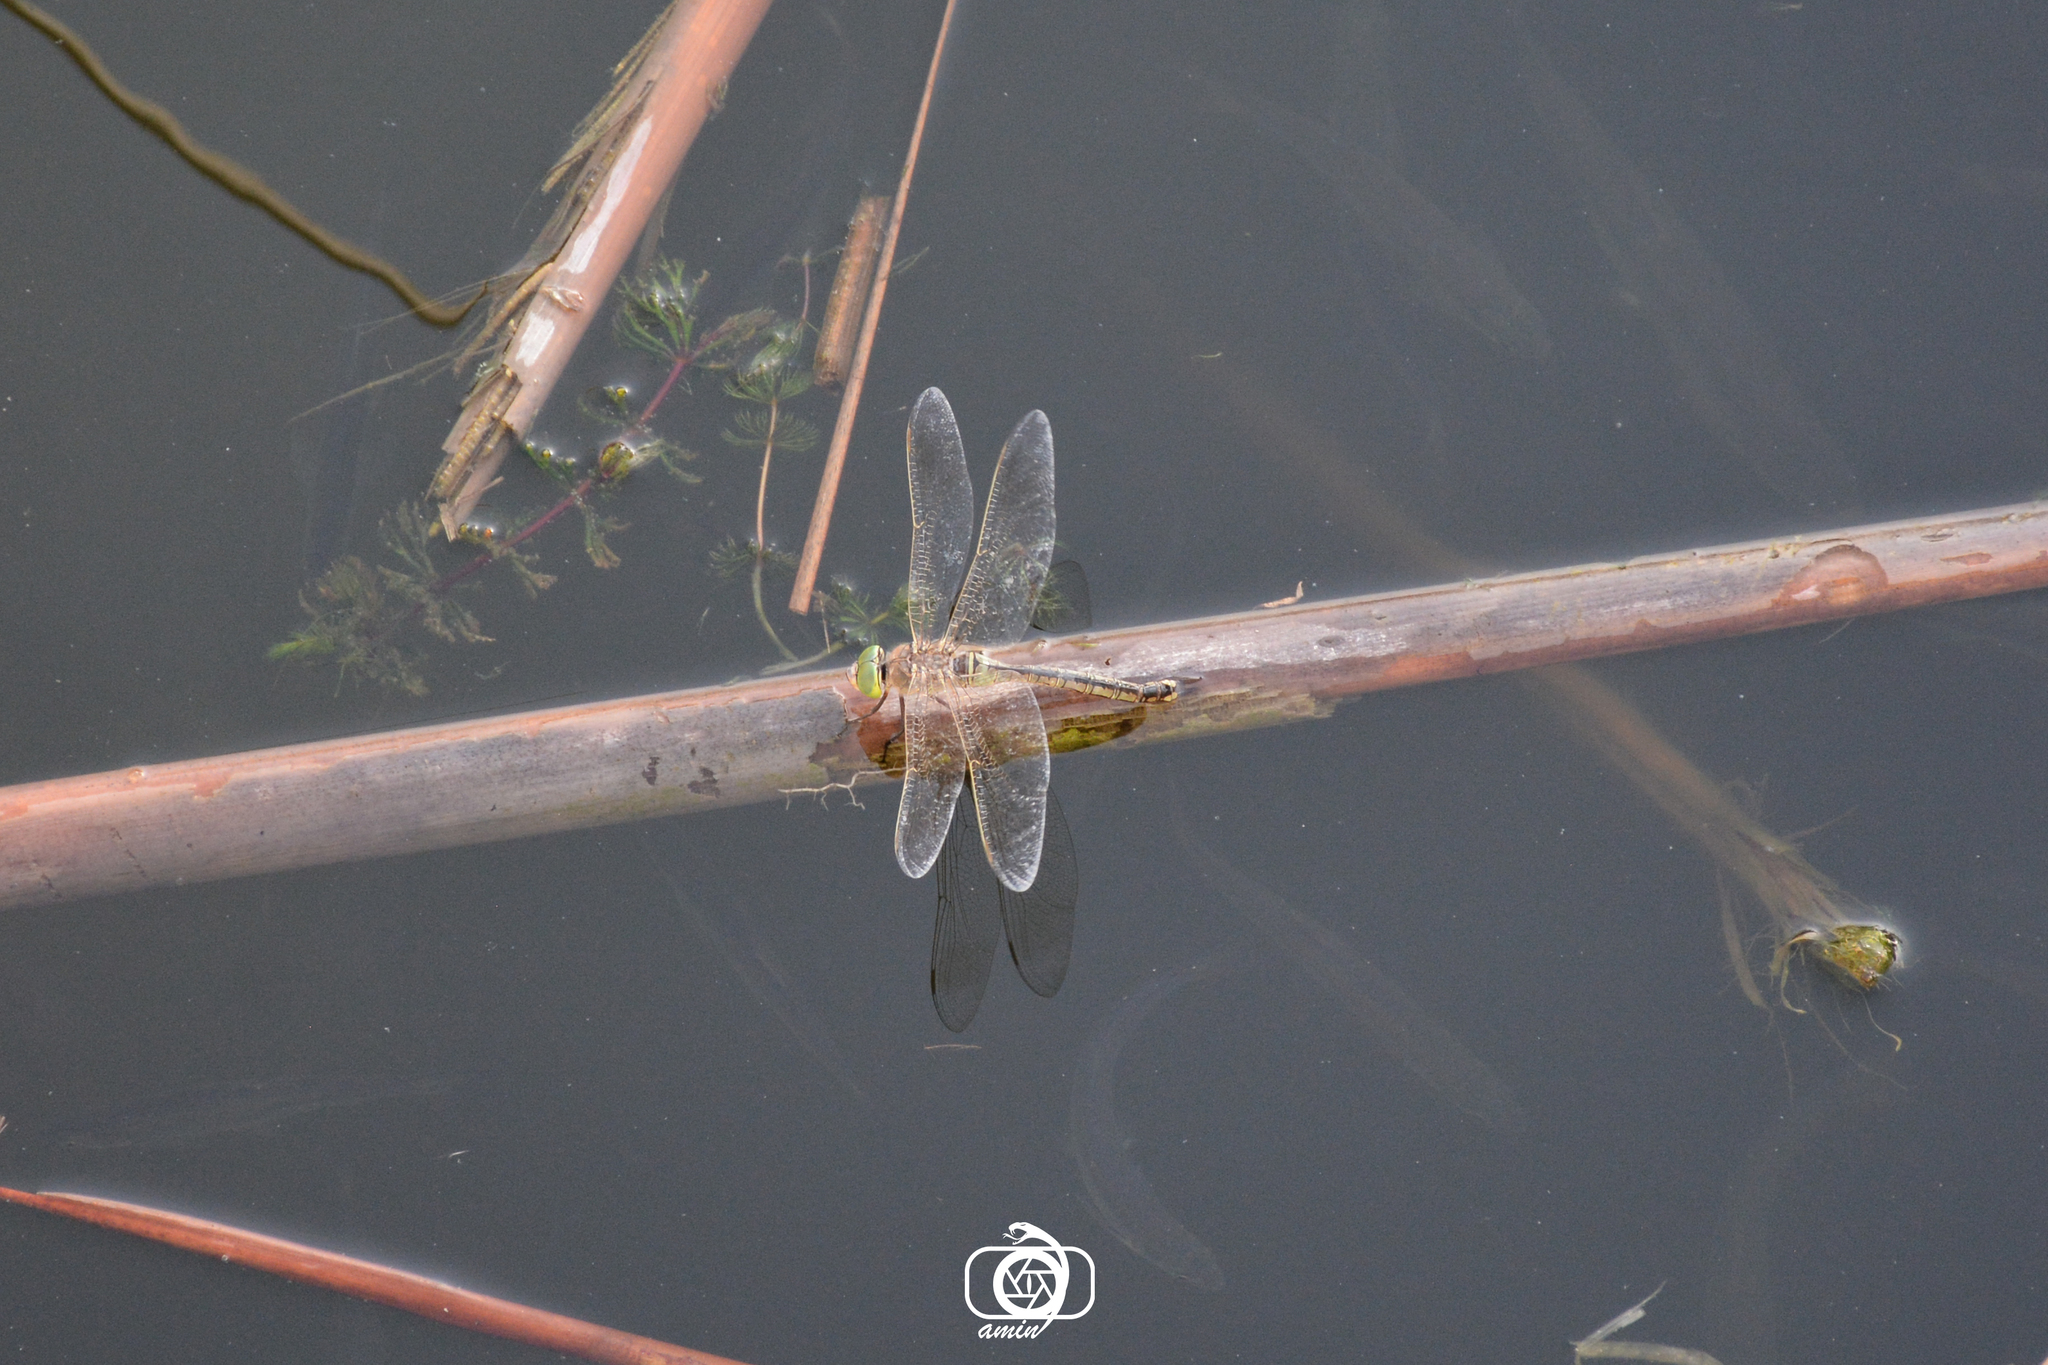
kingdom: Animalia
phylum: Arthropoda
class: Insecta
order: Odonata
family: Aeshnidae
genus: Anax
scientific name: Anax imperator
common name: Emperor dragonfly
